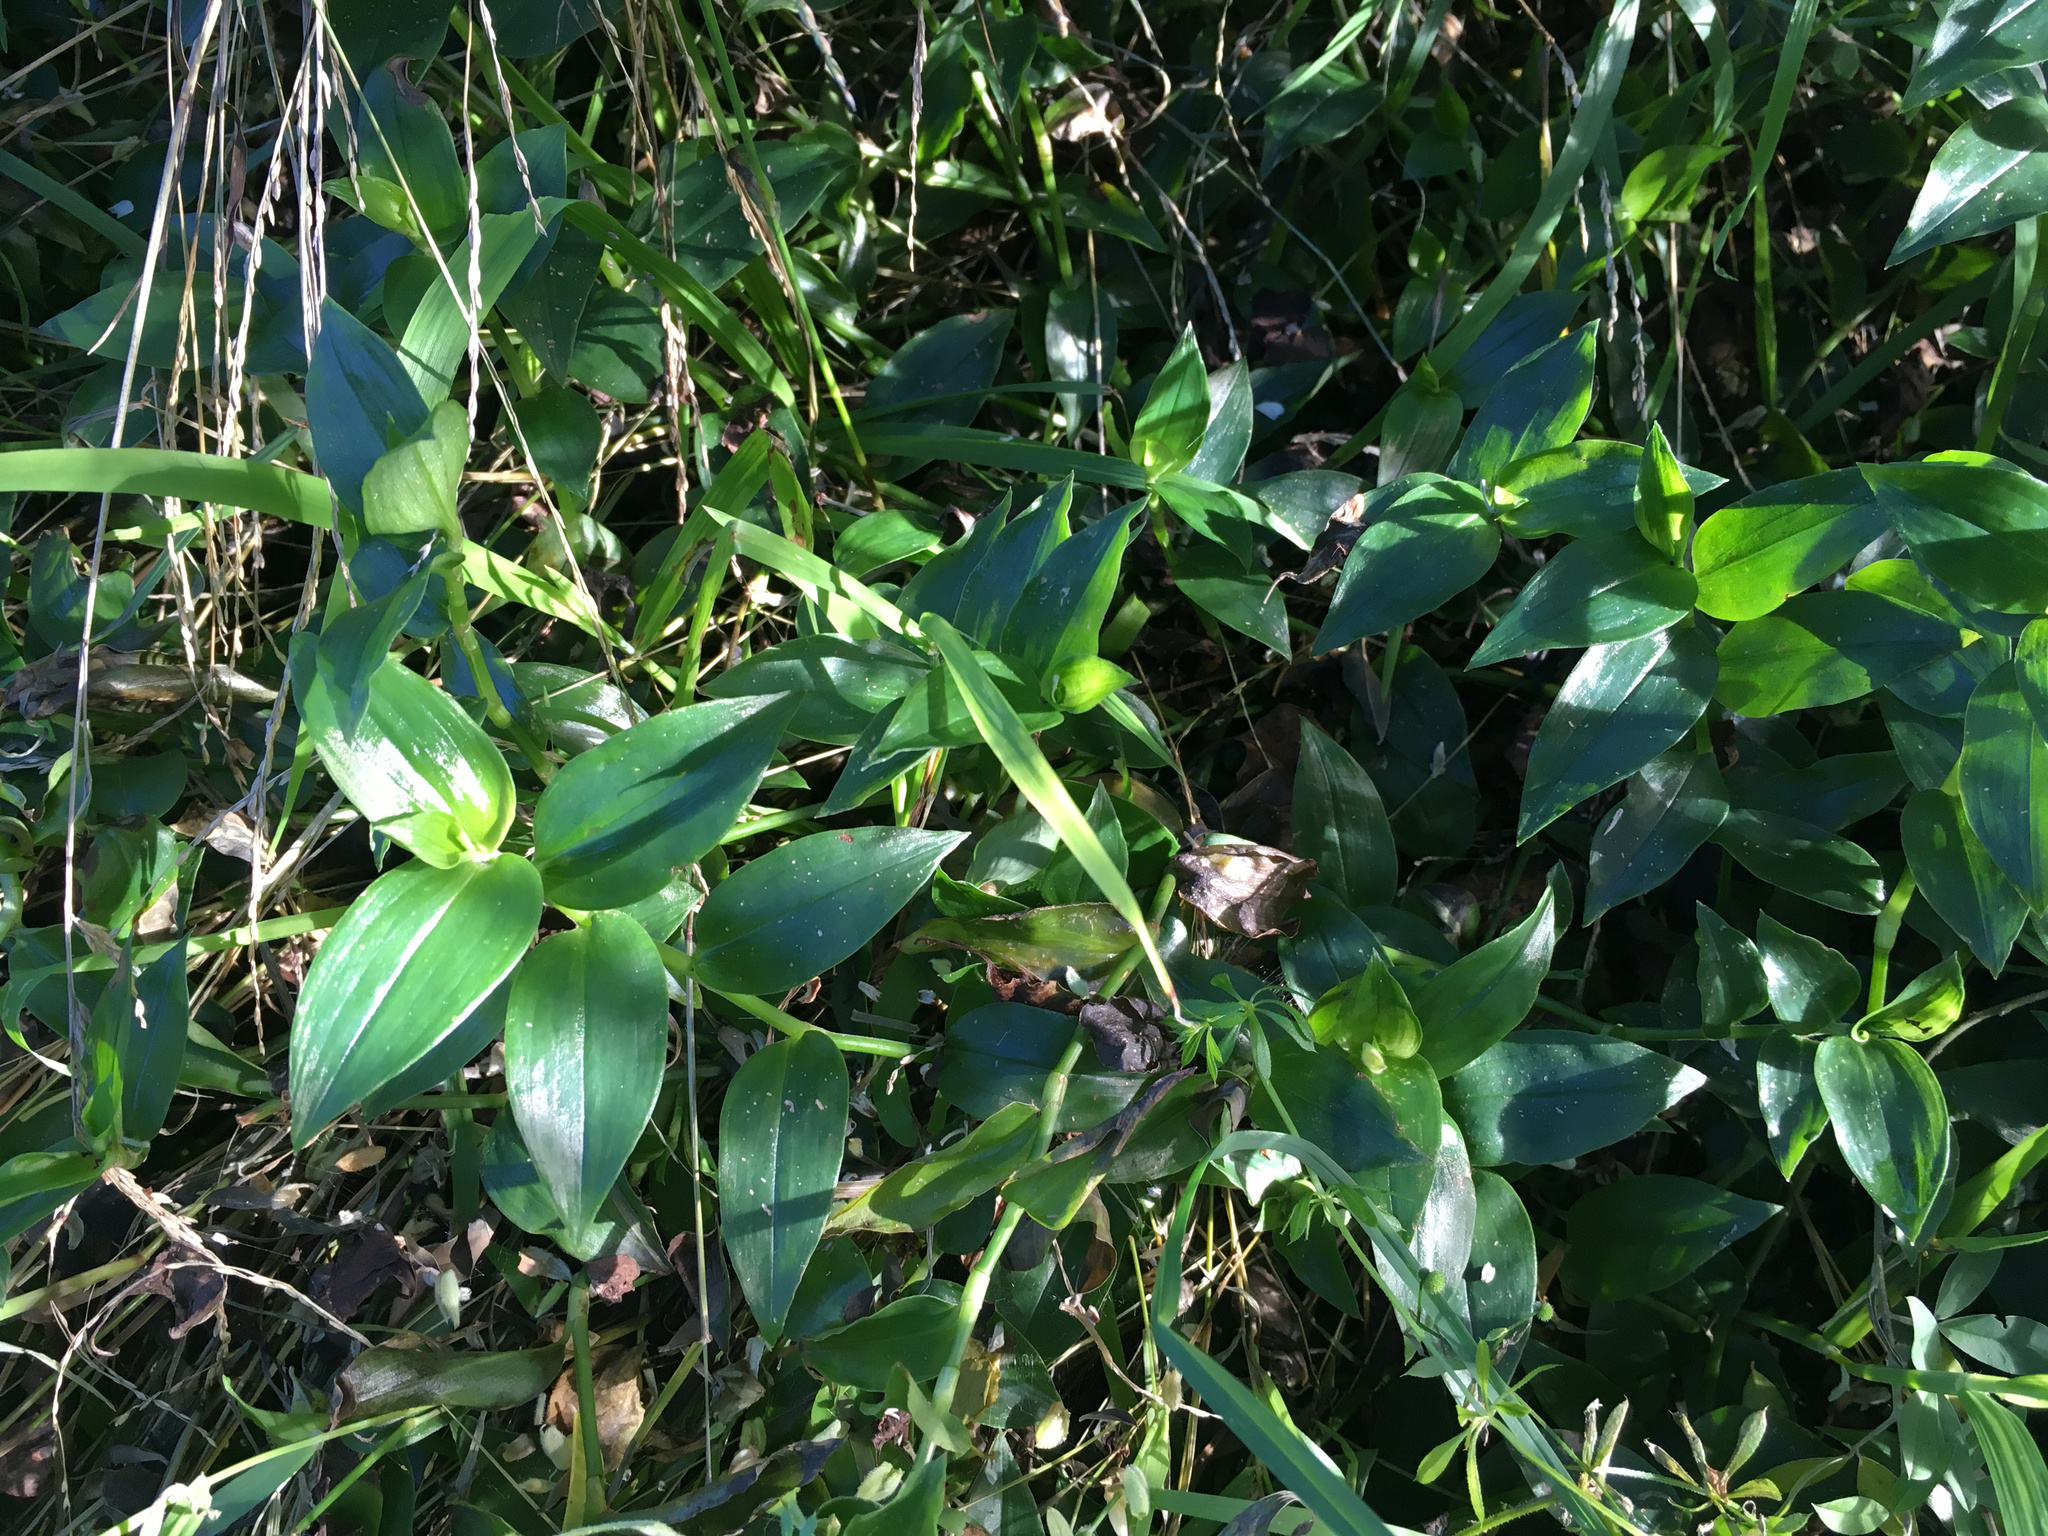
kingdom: Plantae
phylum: Tracheophyta
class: Liliopsida
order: Commelinales
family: Commelinaceae
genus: Tradescantia
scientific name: Tradescantia fluminensis
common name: Wandering-jew
